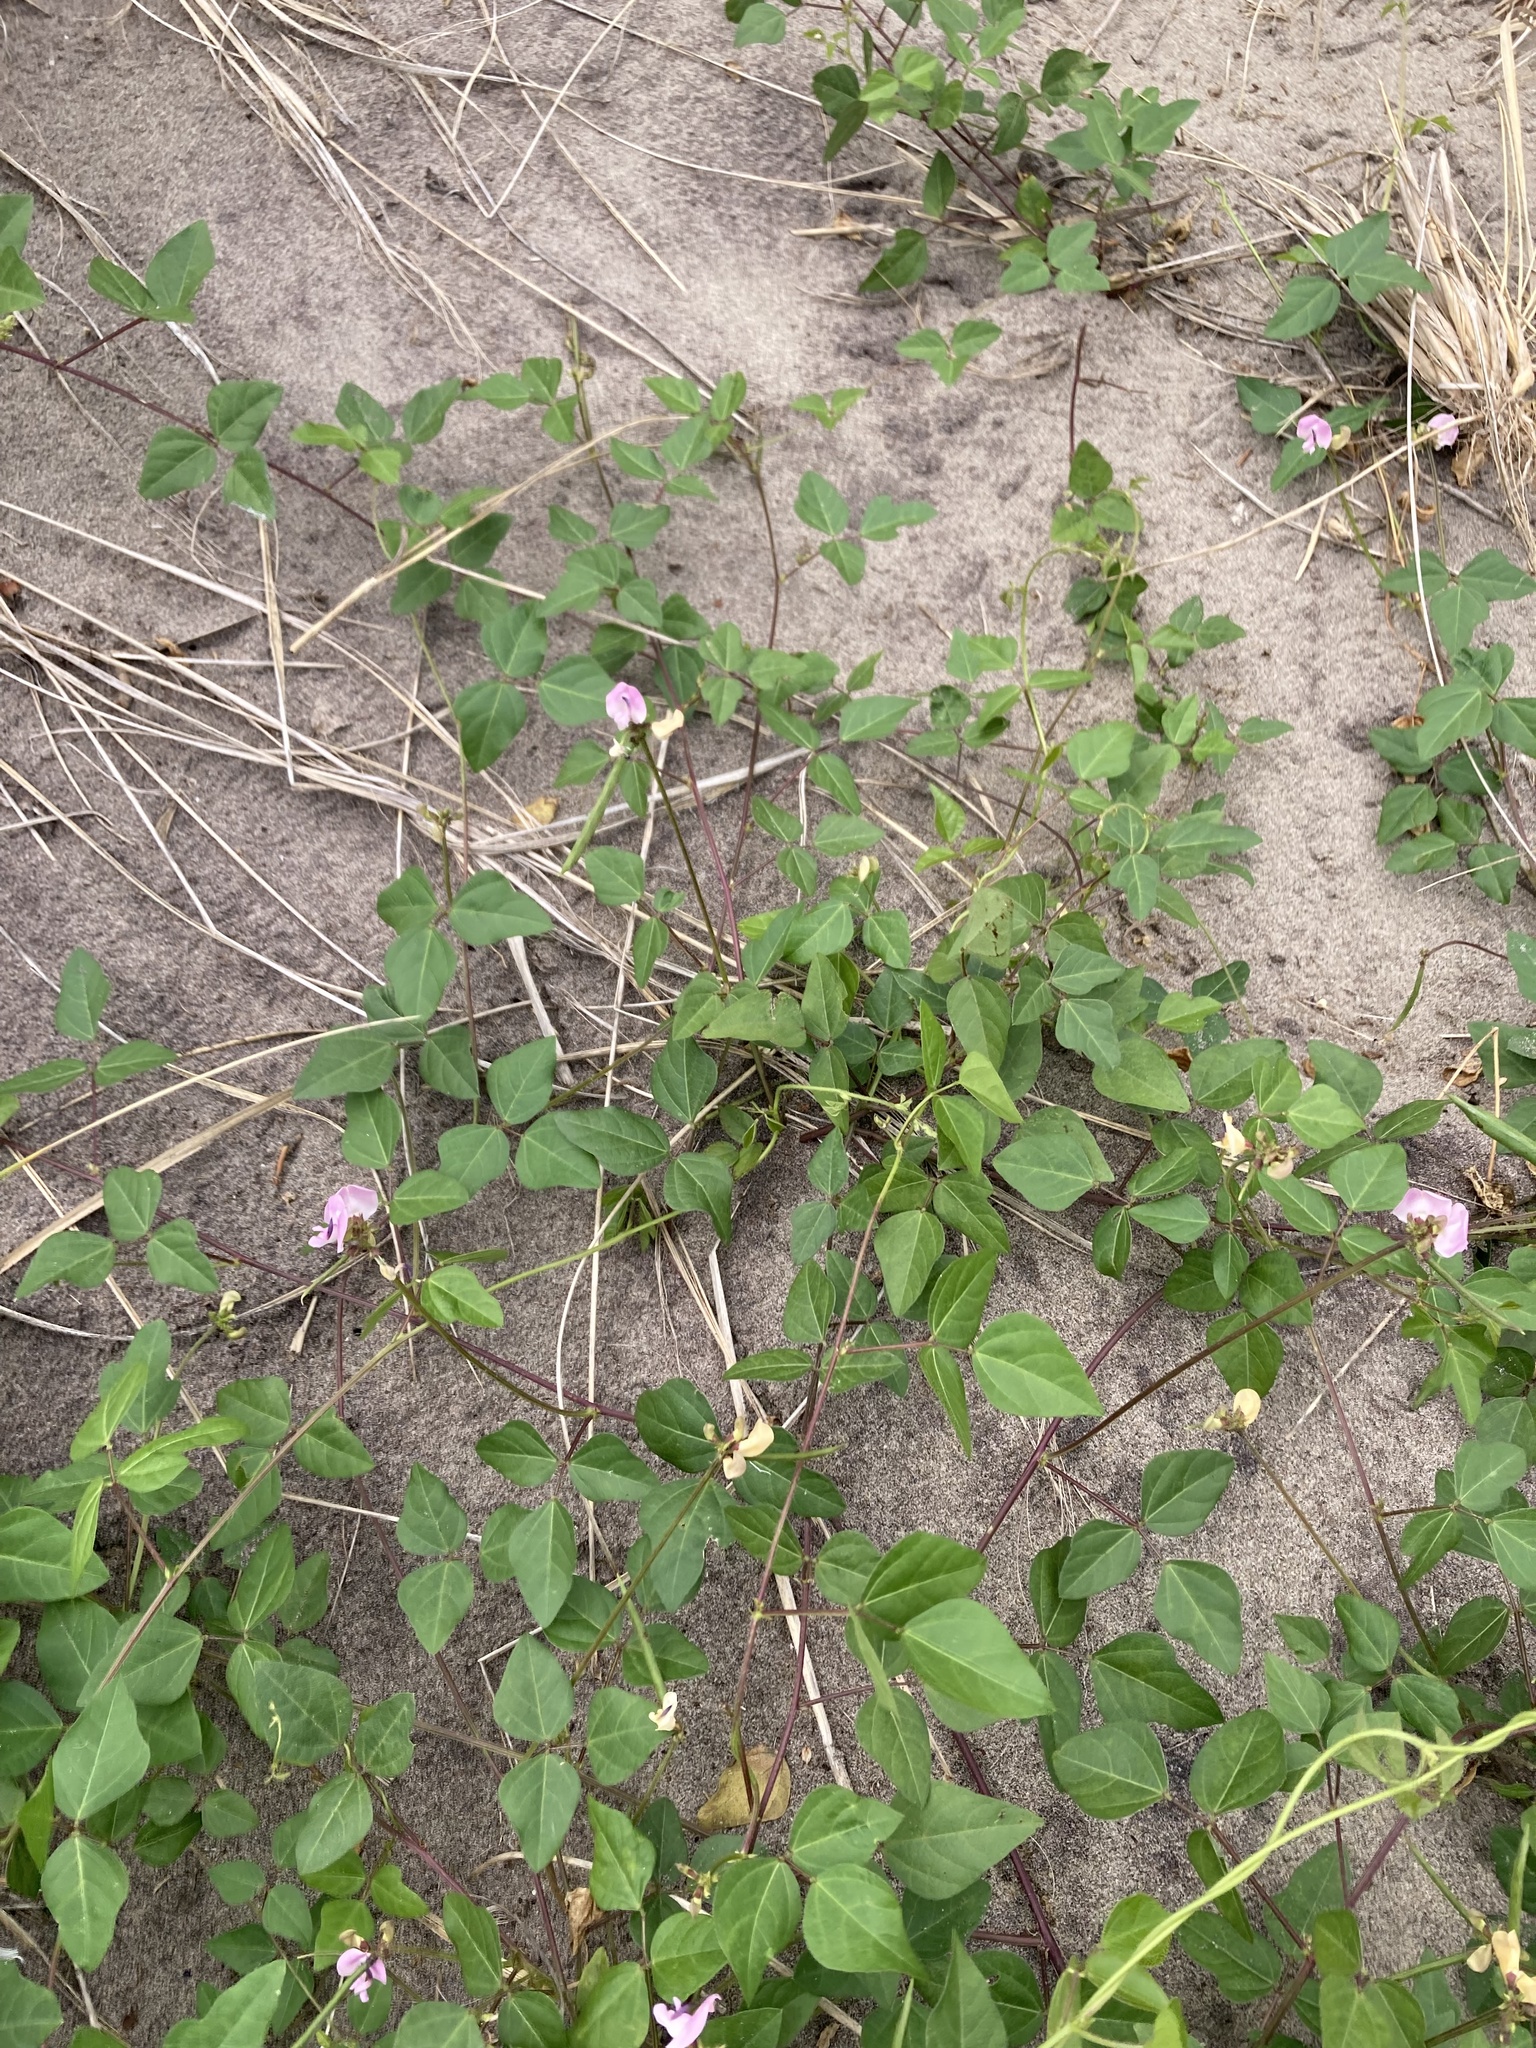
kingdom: Plantae
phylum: Tracheophyta
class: Magnoliopsida
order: Fabales
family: Fabaceae
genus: Strophostyles
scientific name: Strophostyles helvola
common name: Trailing wild bean
